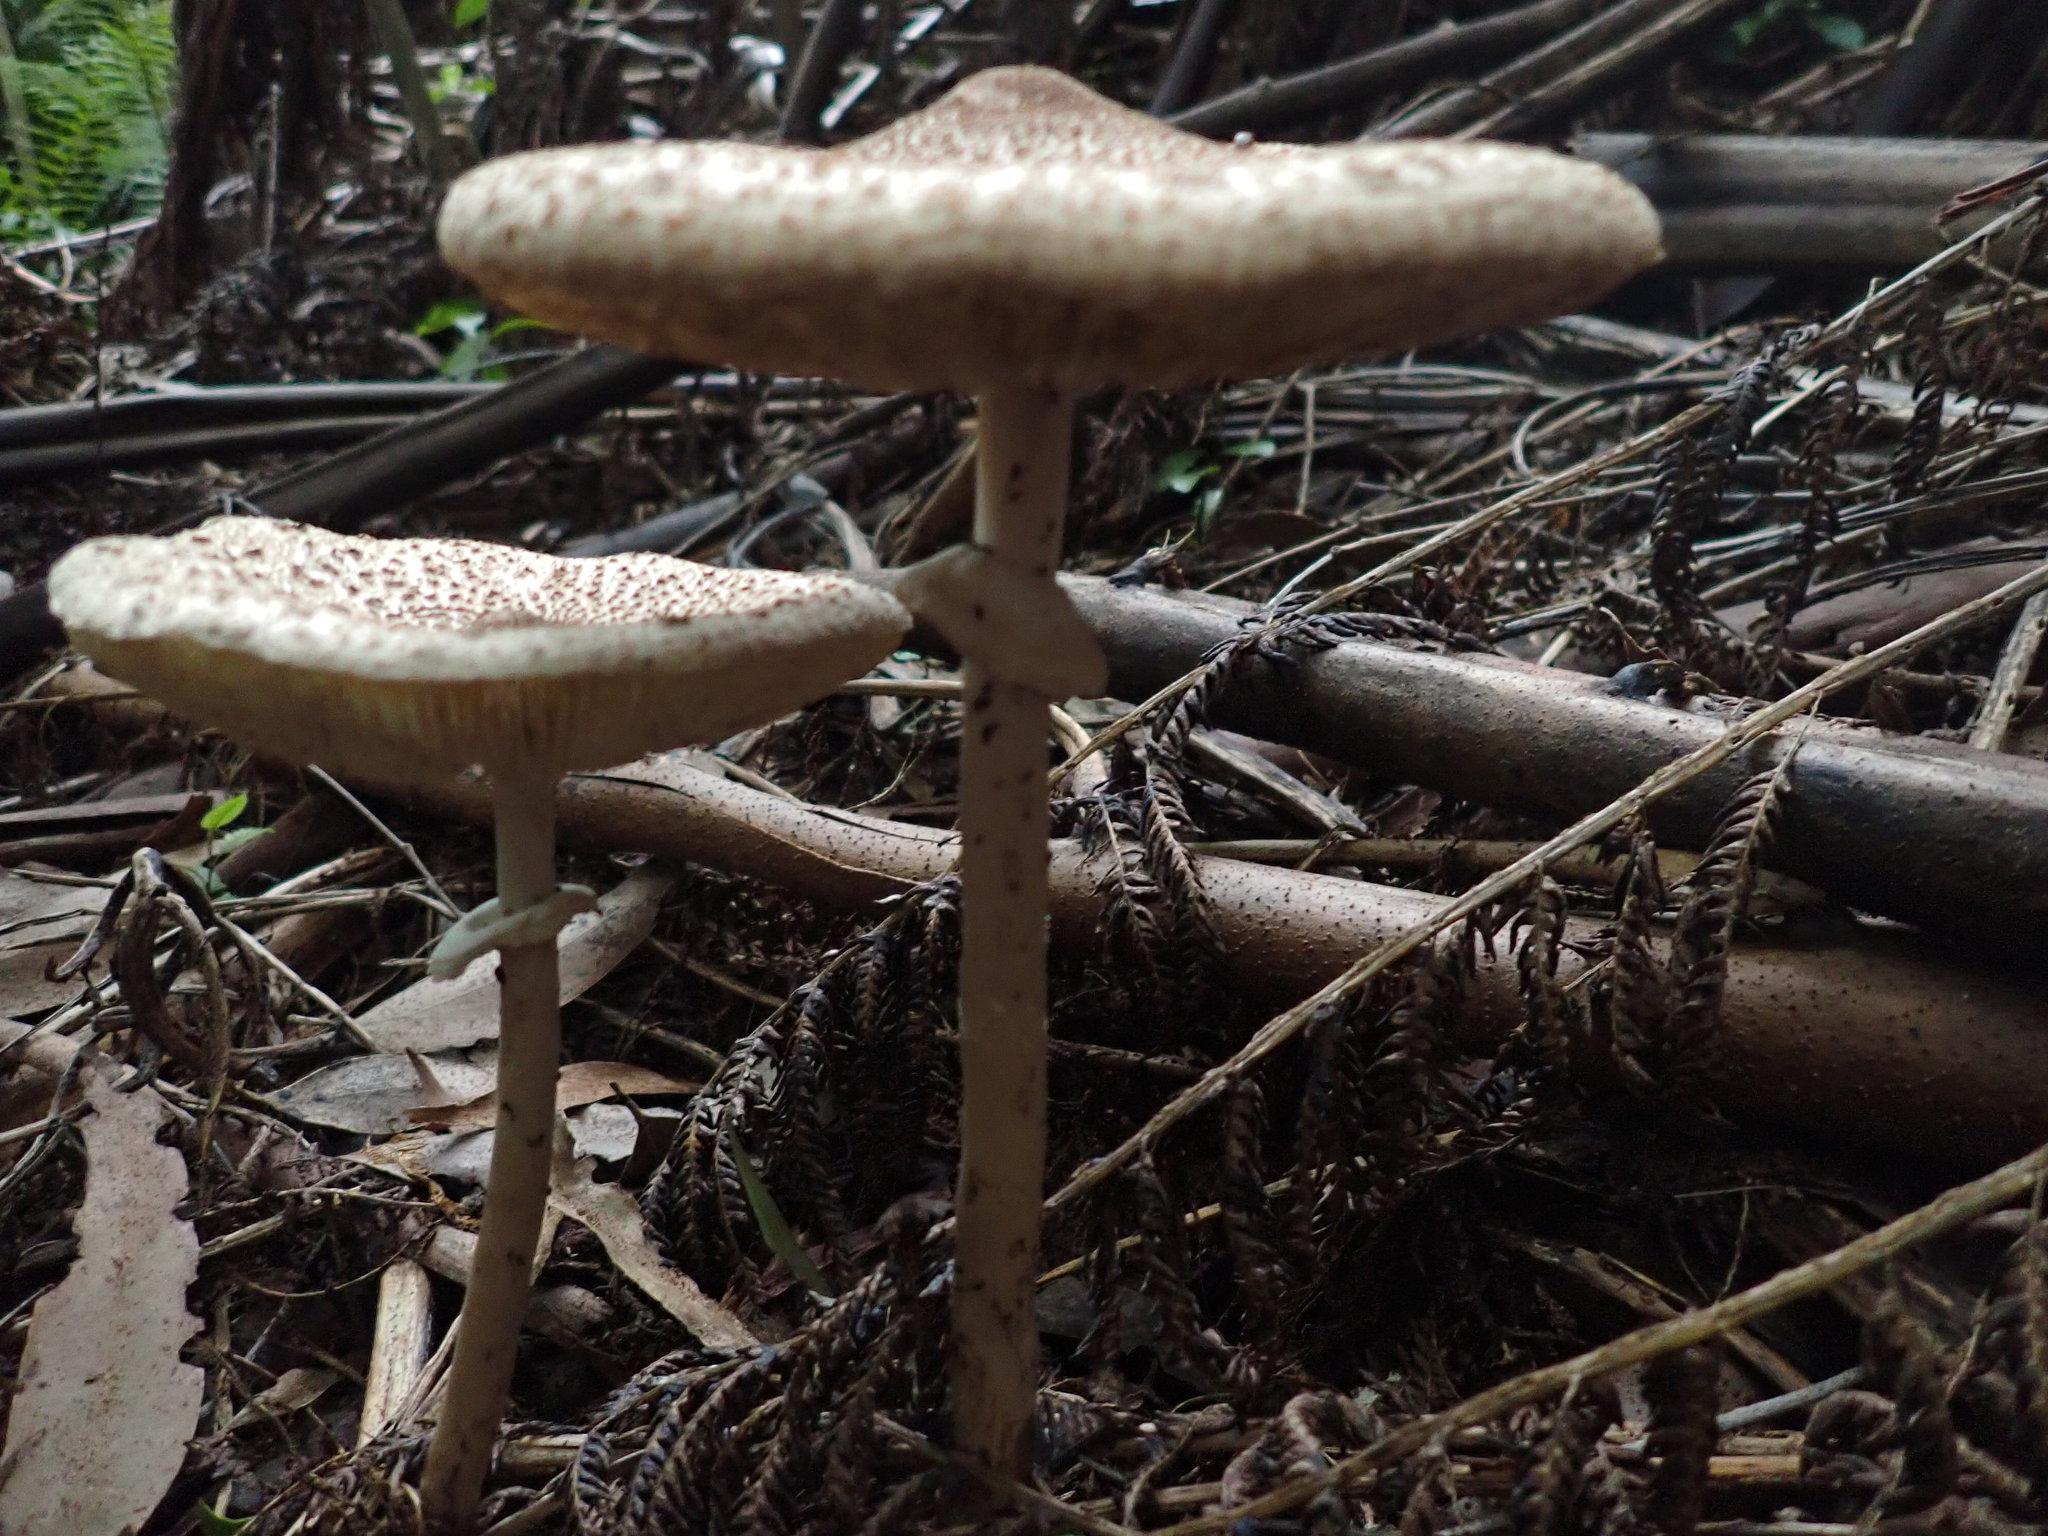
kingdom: Fungi
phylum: Basidiomycota
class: Agaricomycetes
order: Agaricales
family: Agaricaceae
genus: Macrolepiota
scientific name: Macrolepiota clelandii
